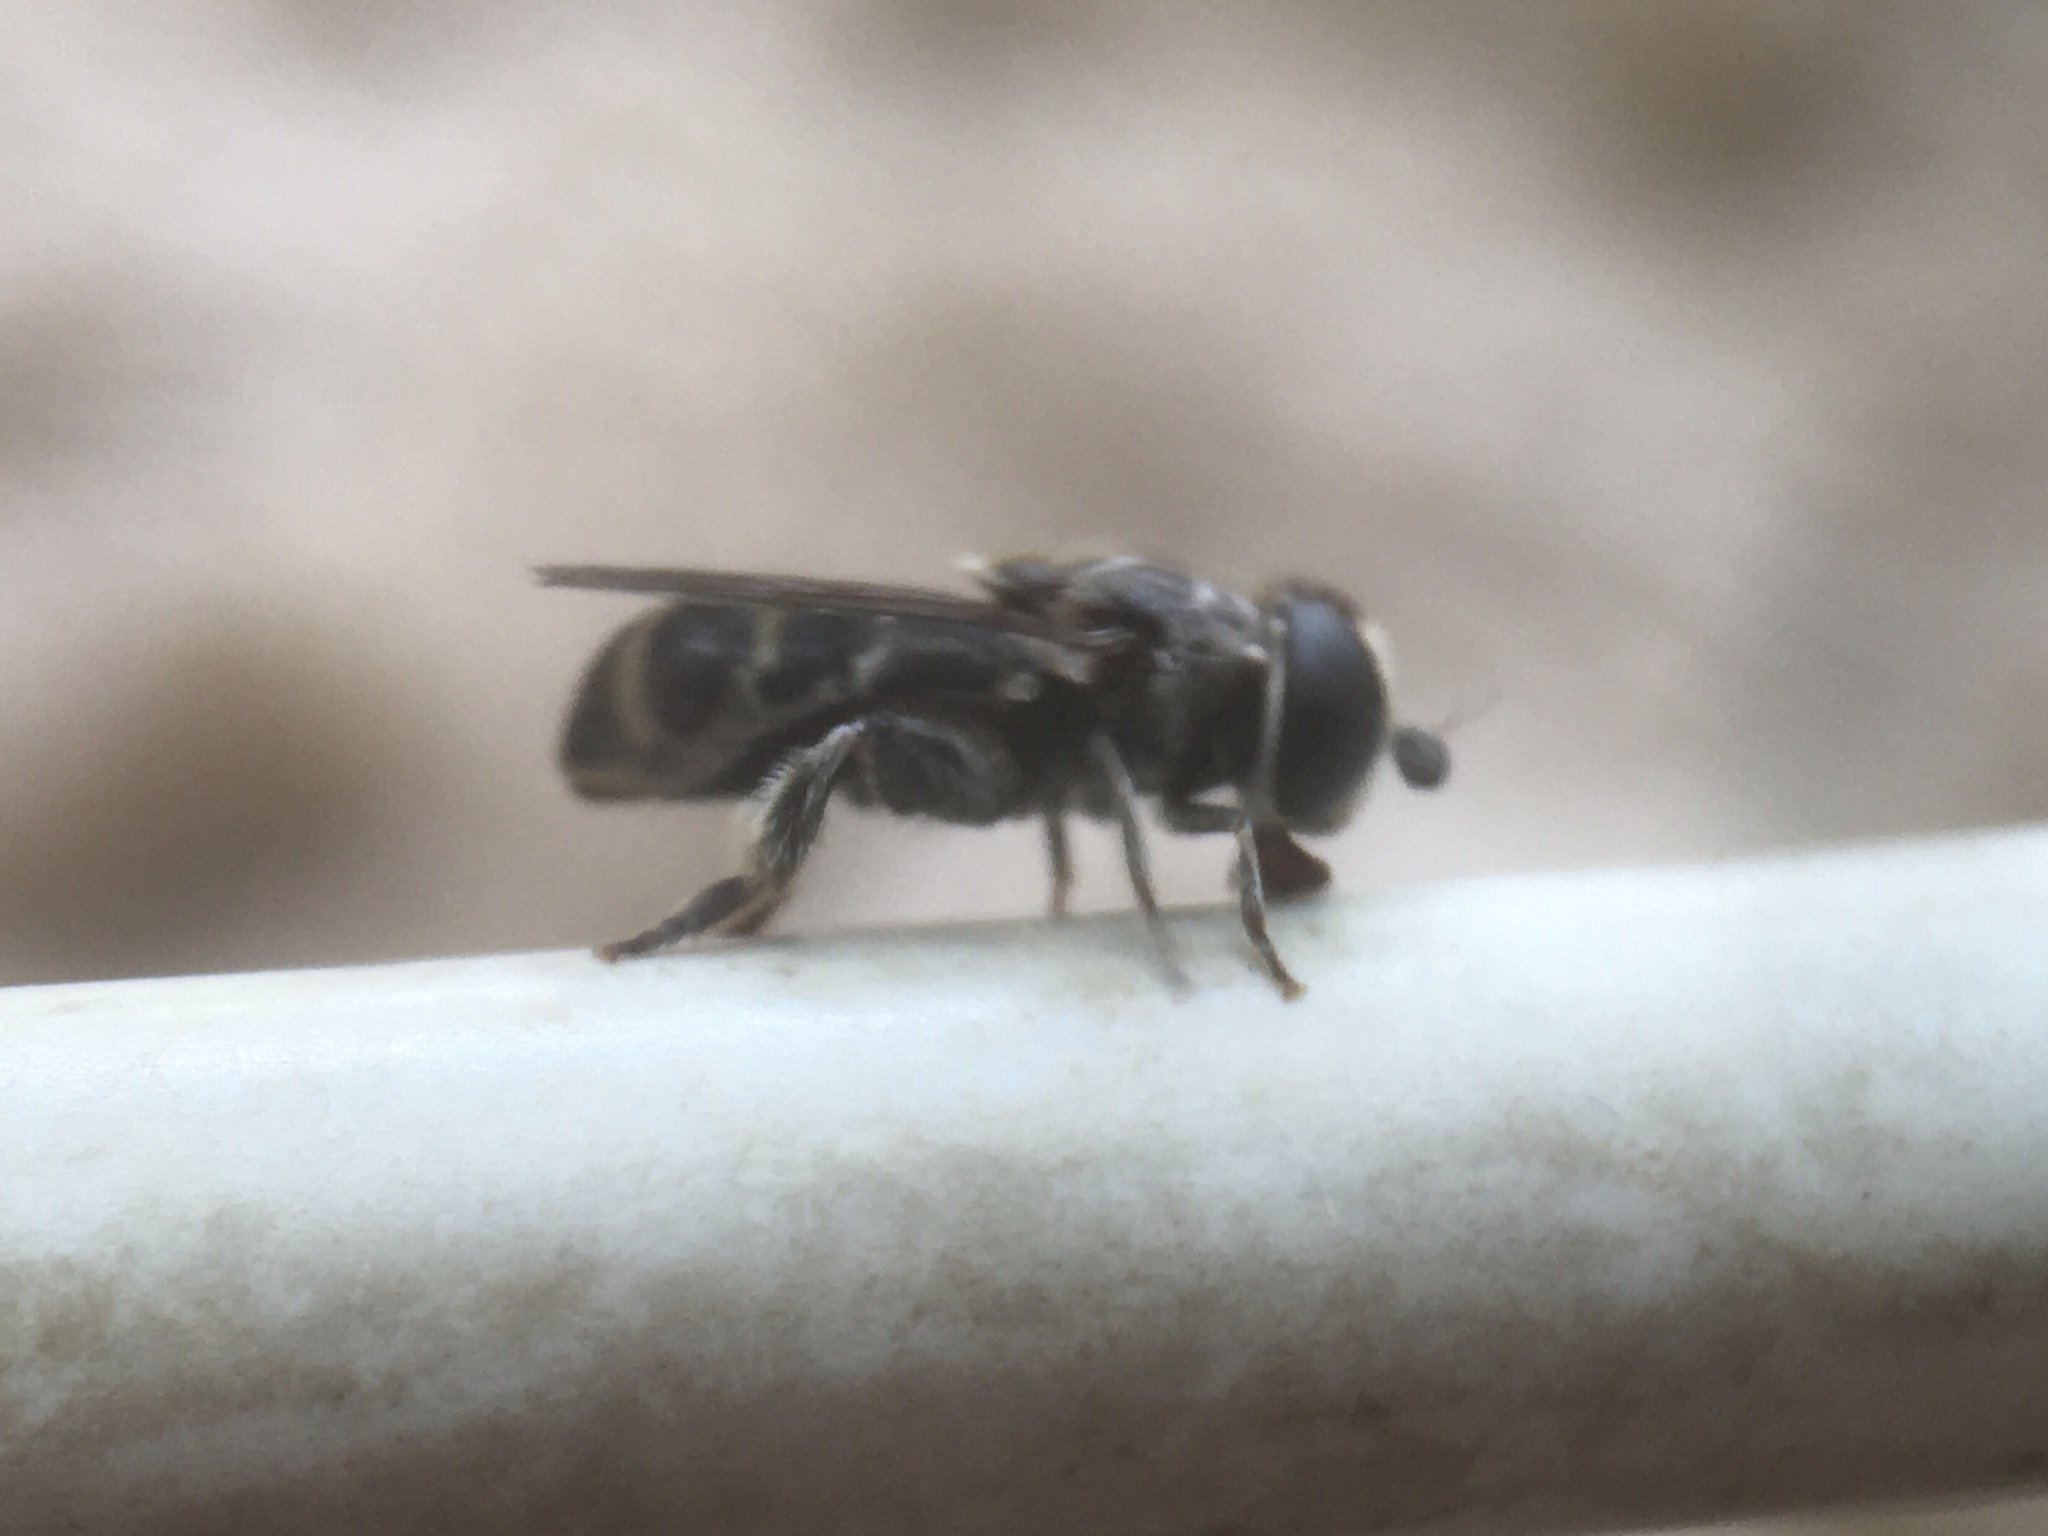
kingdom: Animalia
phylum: Arthropoda
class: Insecta
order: Diptera
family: Syrphidae
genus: Eumerus
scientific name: Eumerus obliquus
